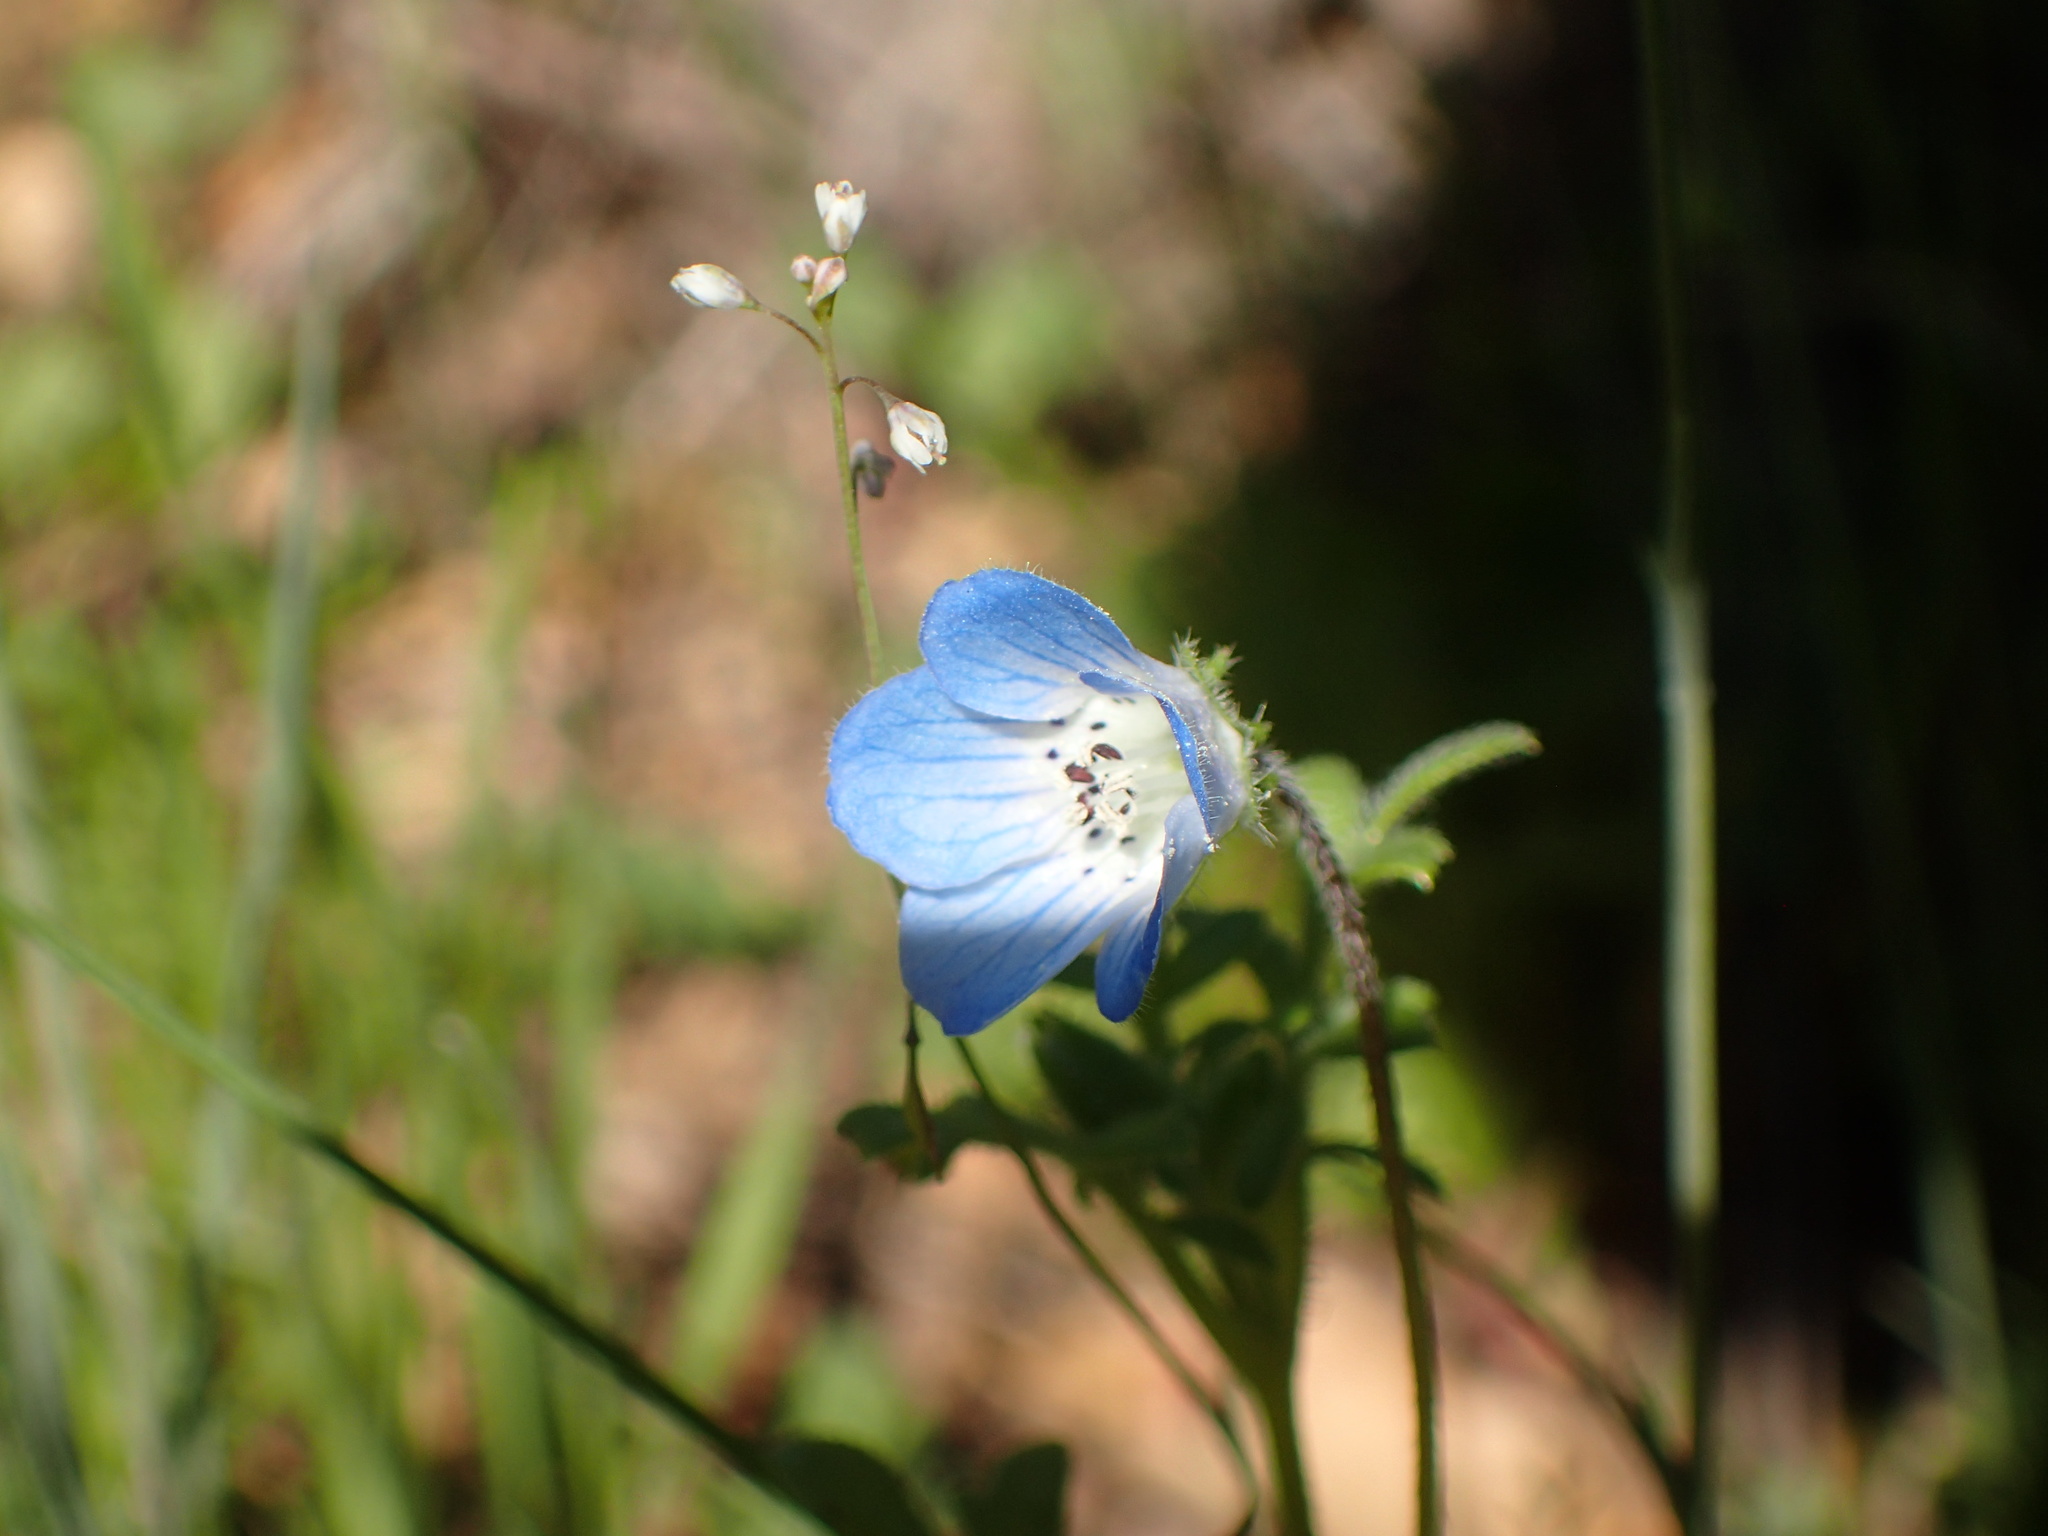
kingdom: Plantae
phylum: Tracheophyta
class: Magnoliopsida
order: Boraginales
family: Hydrophyllaceae
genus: Nemophila
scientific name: Nemophila menziesii
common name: Baby's-blue-eyes
